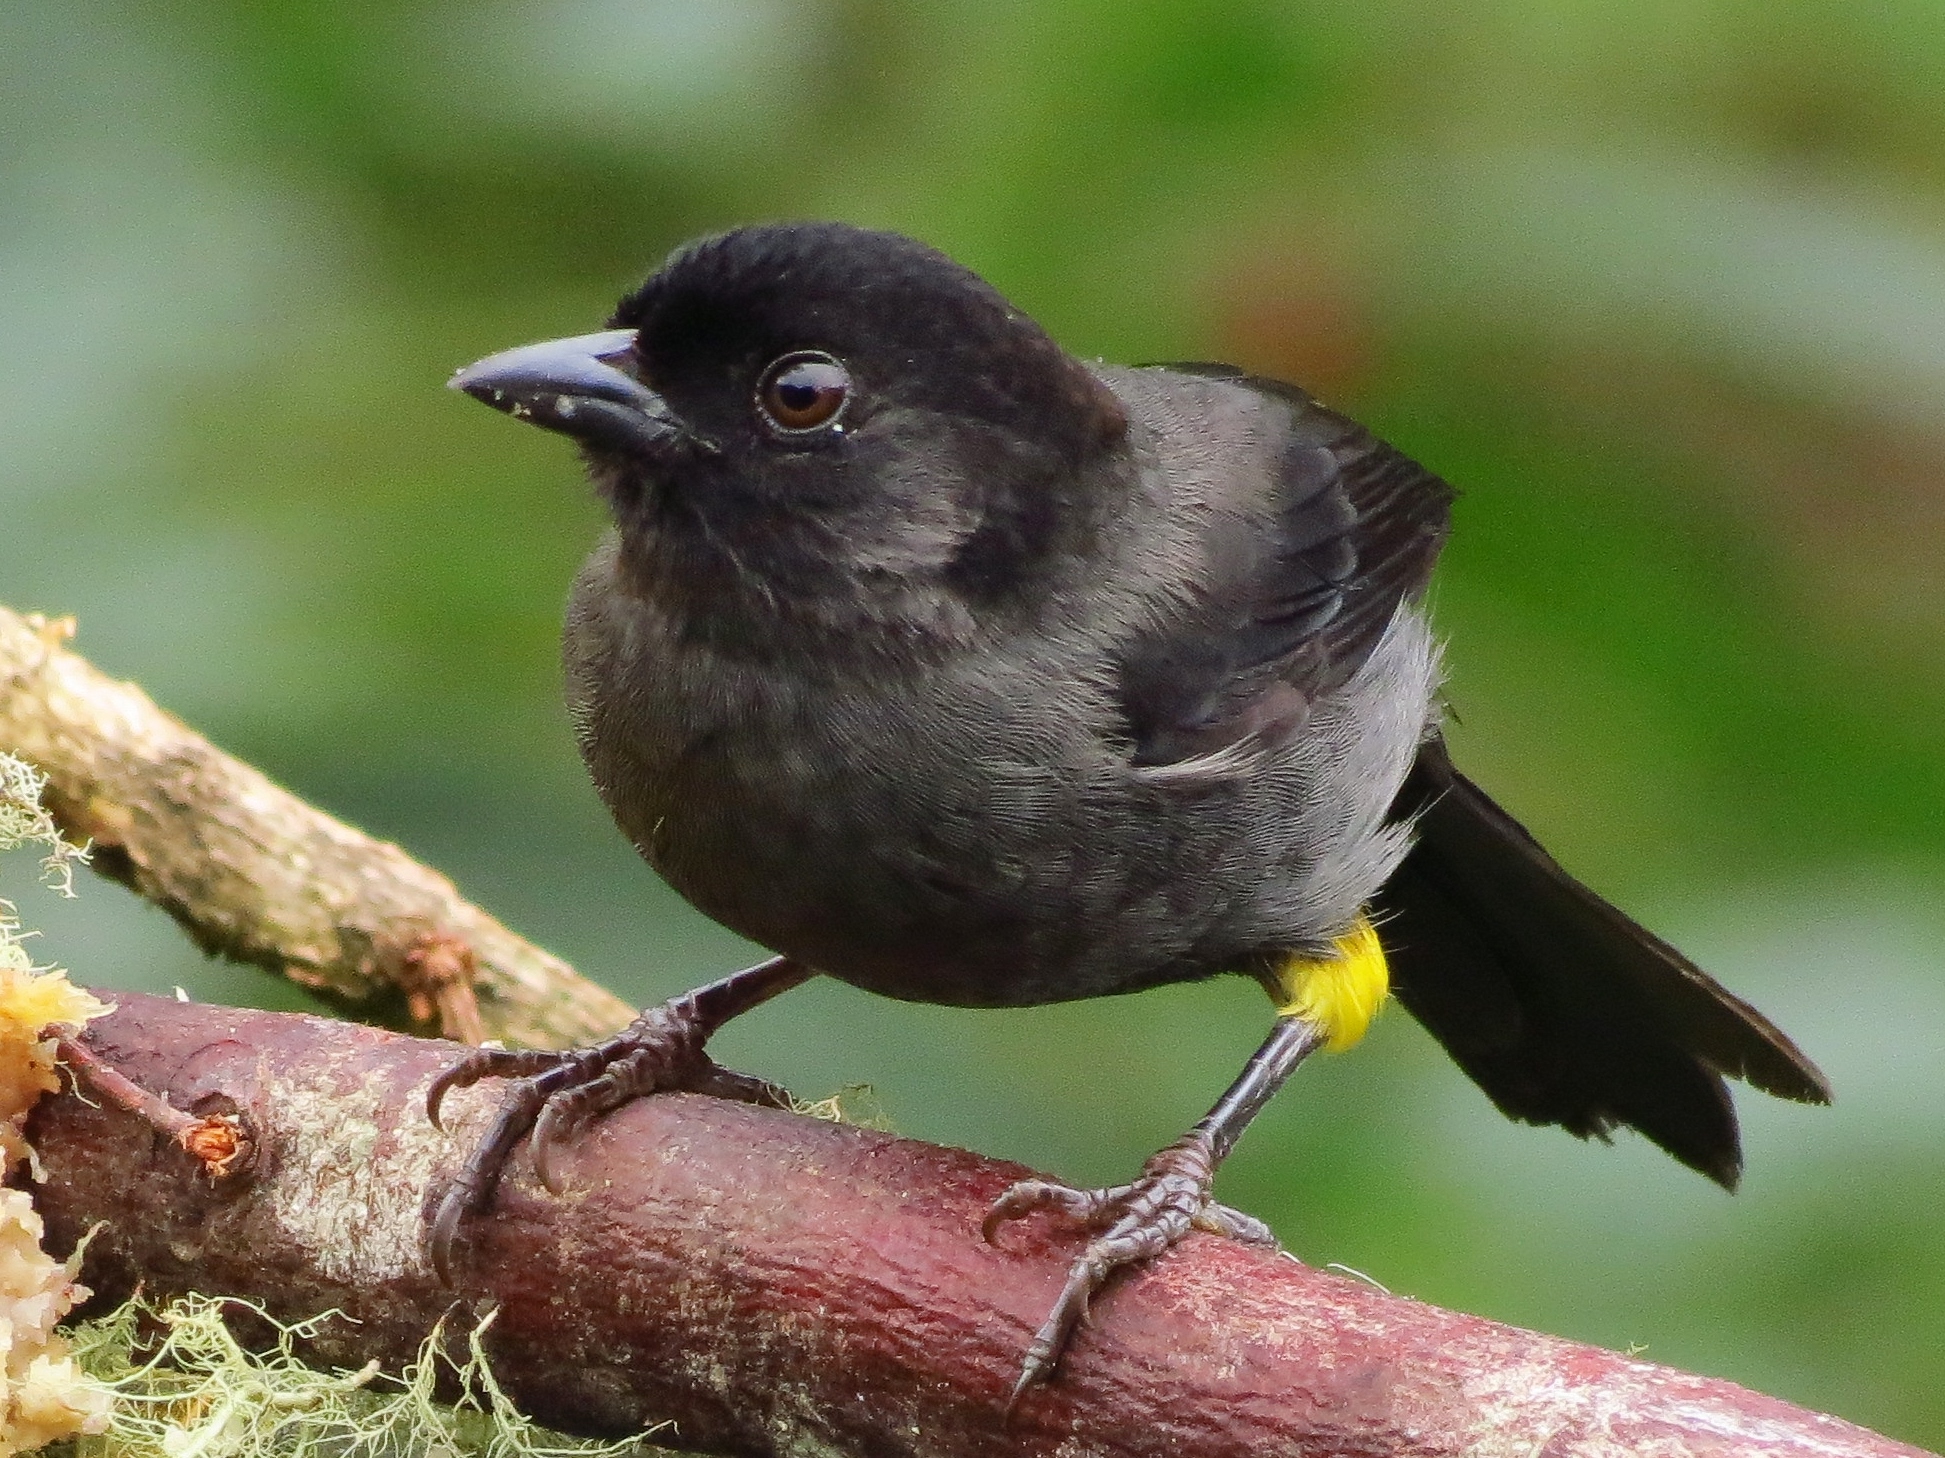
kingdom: Animalia
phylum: Chordata
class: Aves
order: Passeriformes
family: Passerellidae
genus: Atlapetes
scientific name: Atlapetes tibialis
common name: Yellow-thighed brushfinch
